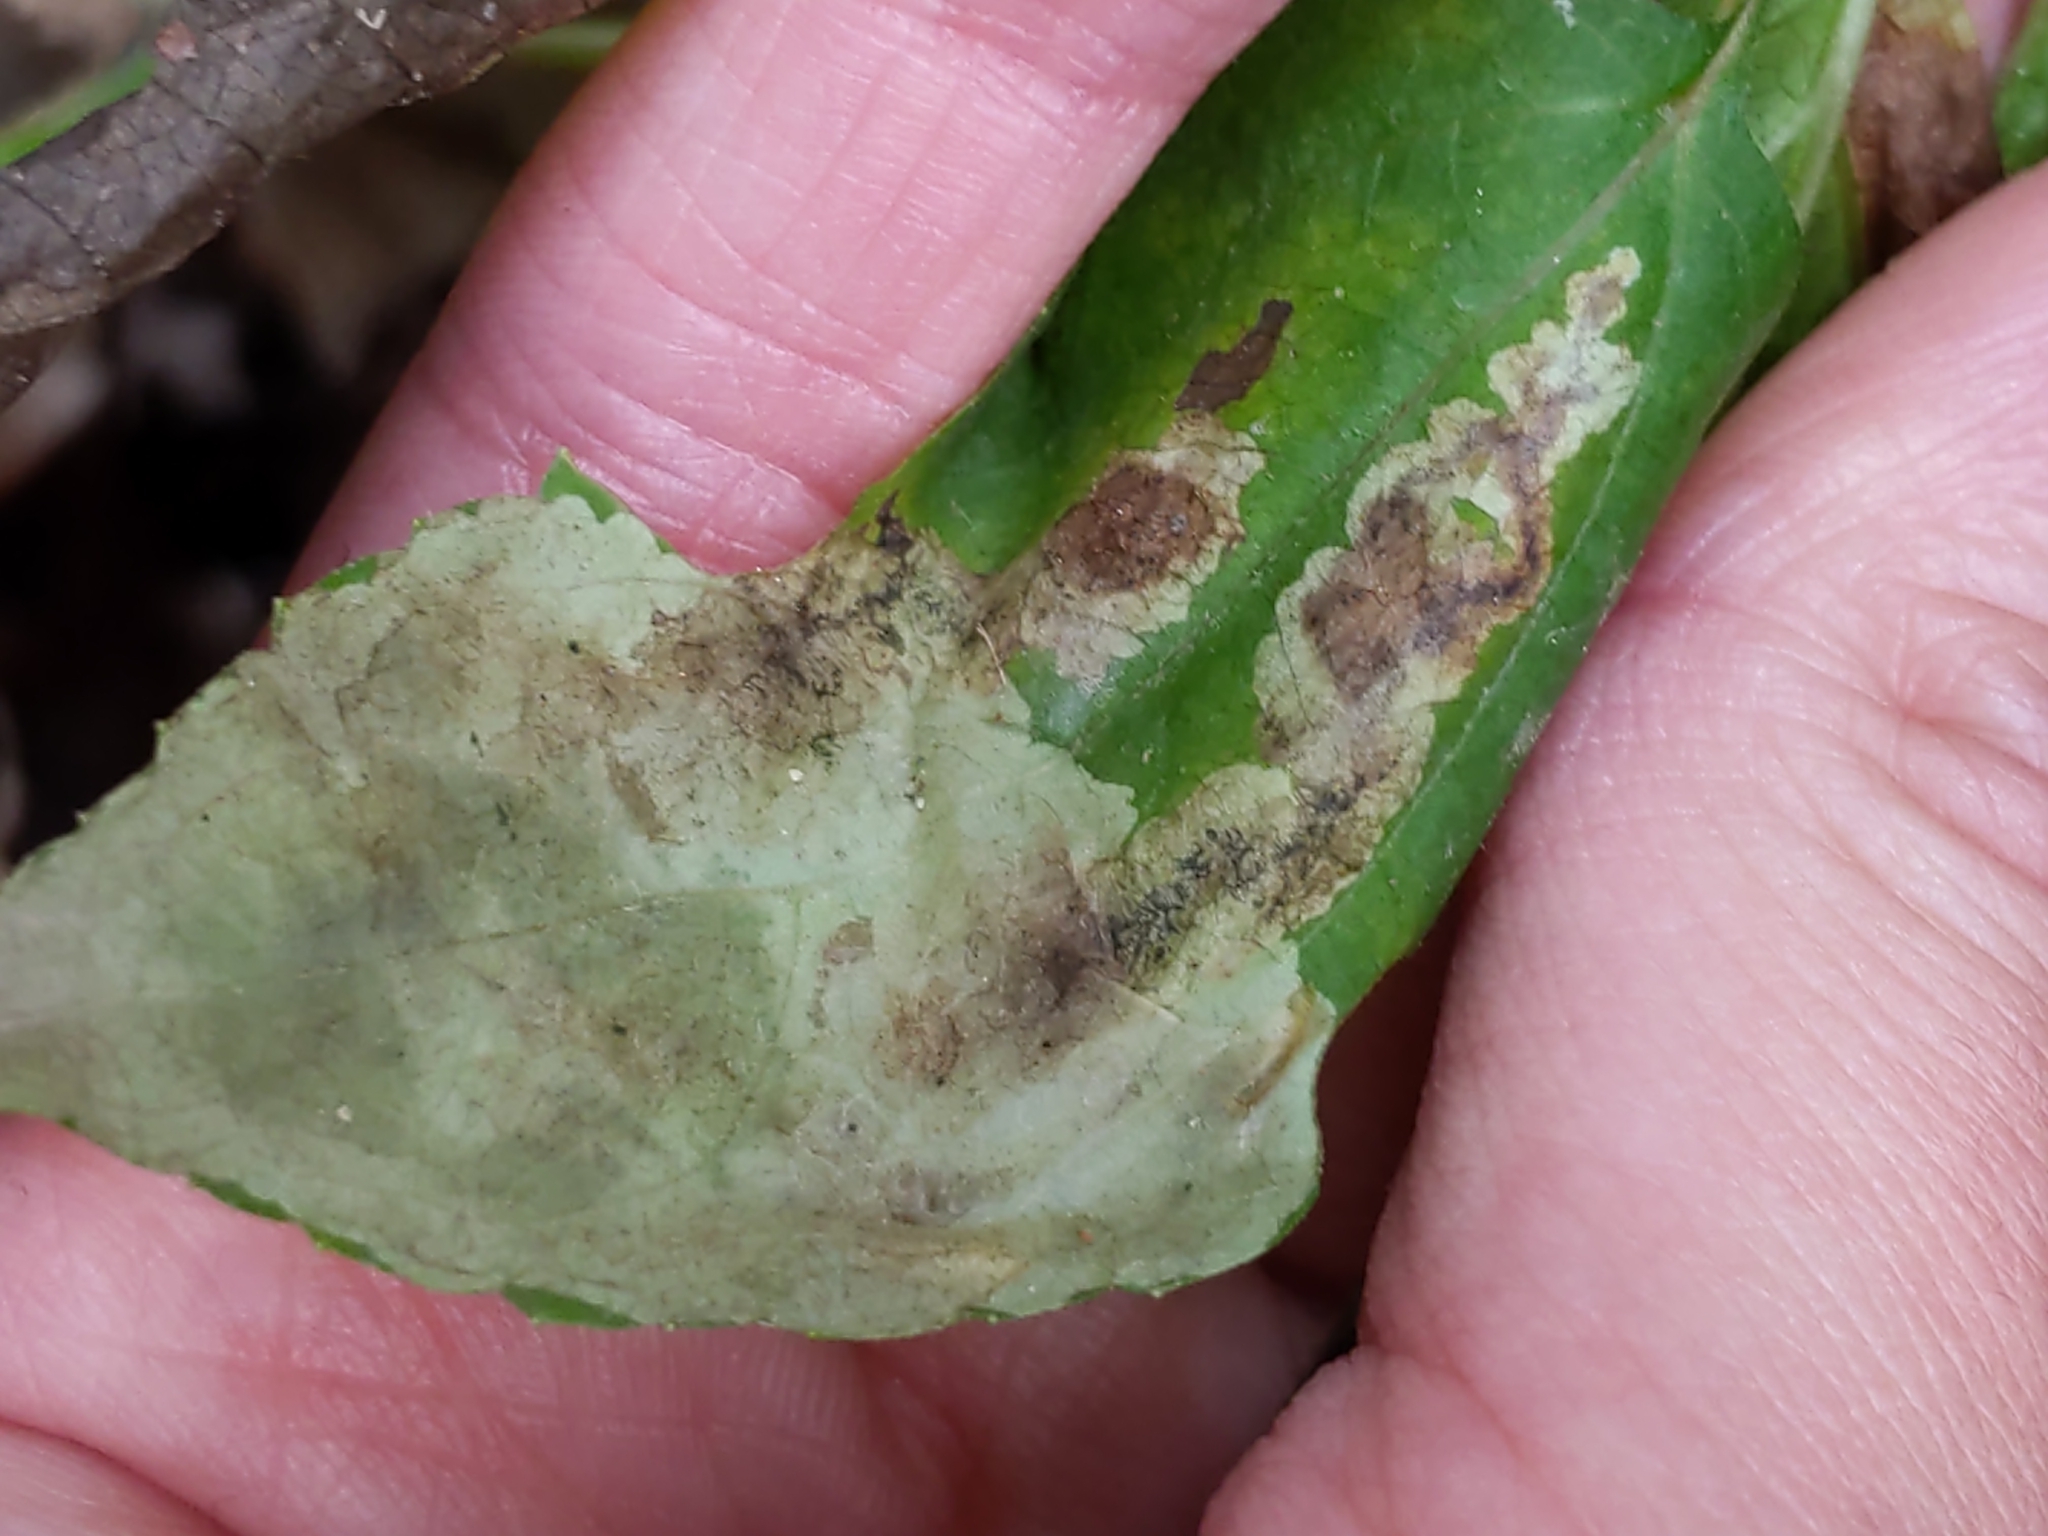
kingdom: Animalia
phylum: Arthropoda
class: Insecta
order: Diptera
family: Agromyzidae
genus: Calycomyza
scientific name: Calycomyza
